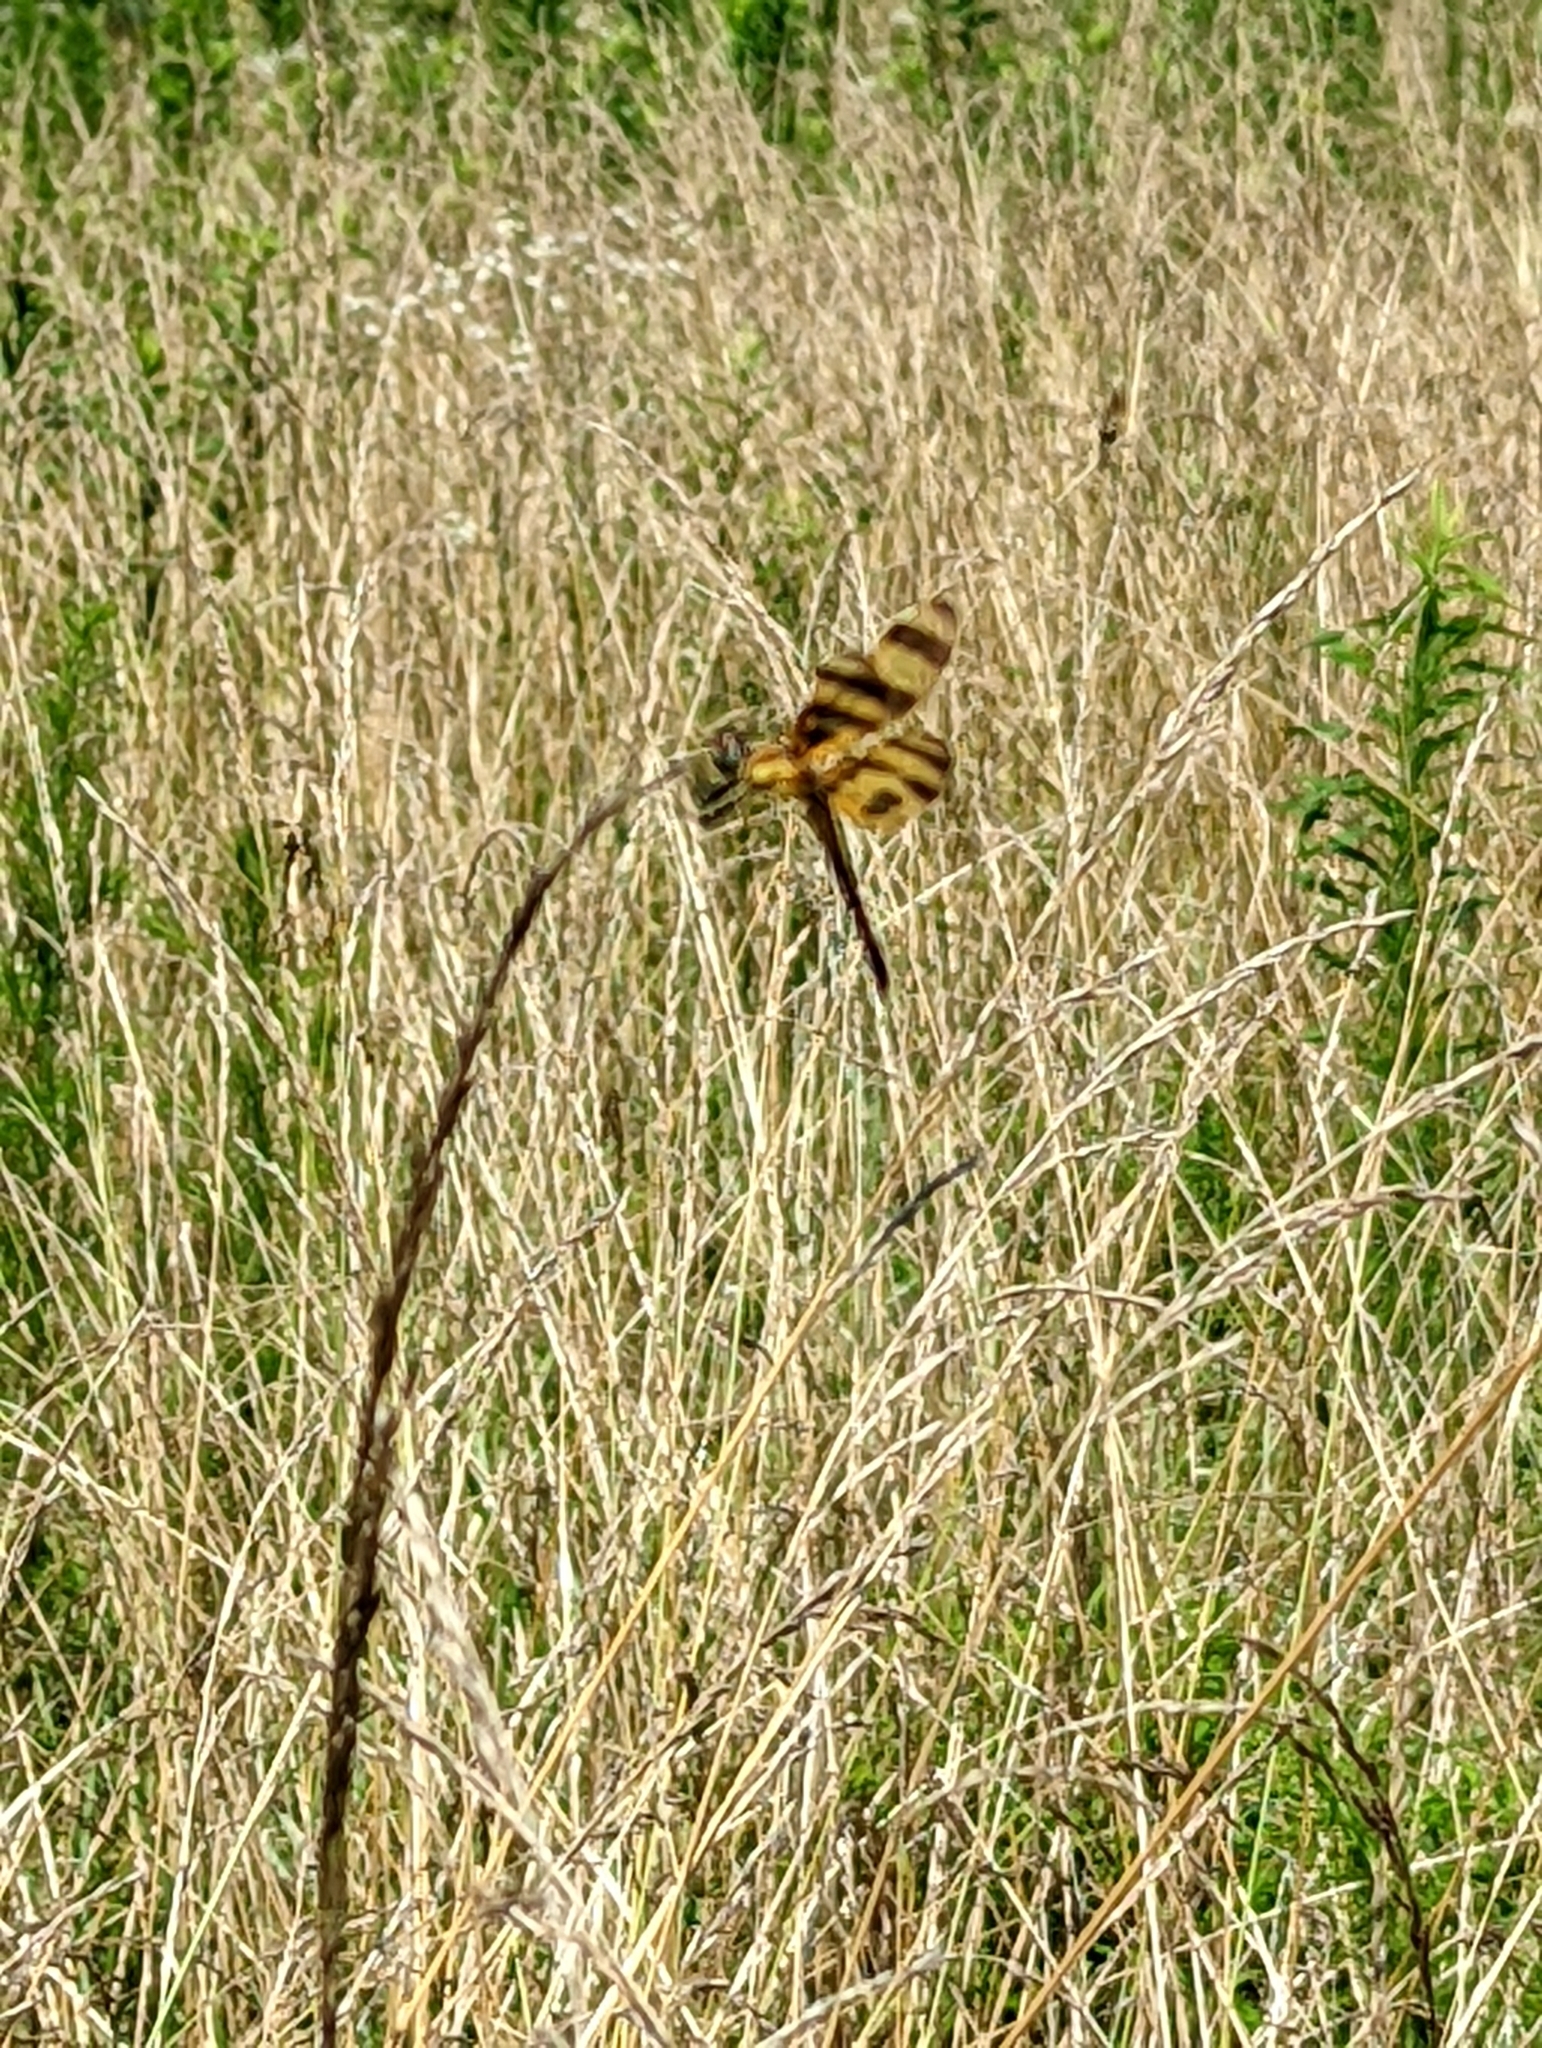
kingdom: Animalia
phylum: Arthropoda
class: Insecta
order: Odonata
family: Libellulidae
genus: Celithemis
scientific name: Celithemis eponina
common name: Halloween pennant
